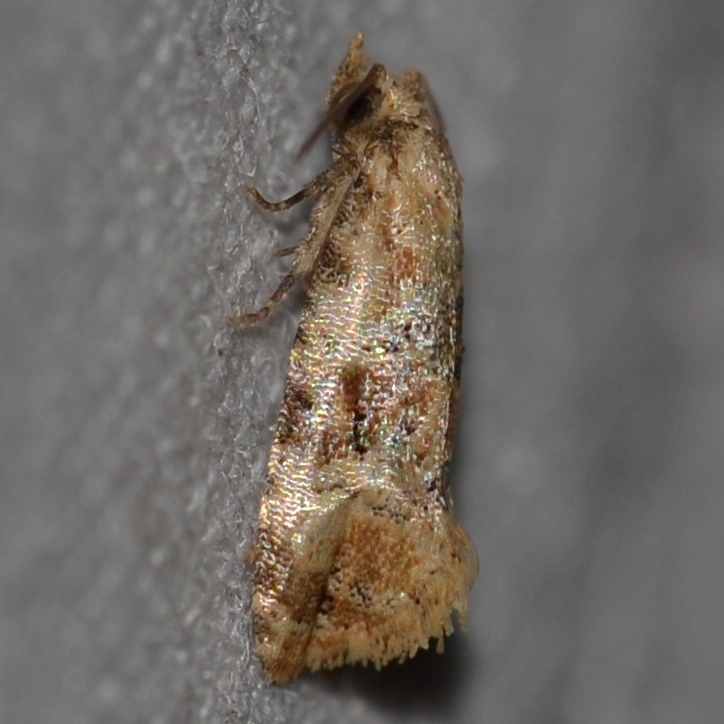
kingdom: Animalia
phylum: Arthropoda
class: Insecta
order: Lepidoptera
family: Tortricidae
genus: Lorita
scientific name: Lorita scarificata
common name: Chrysanthemum flower borer
